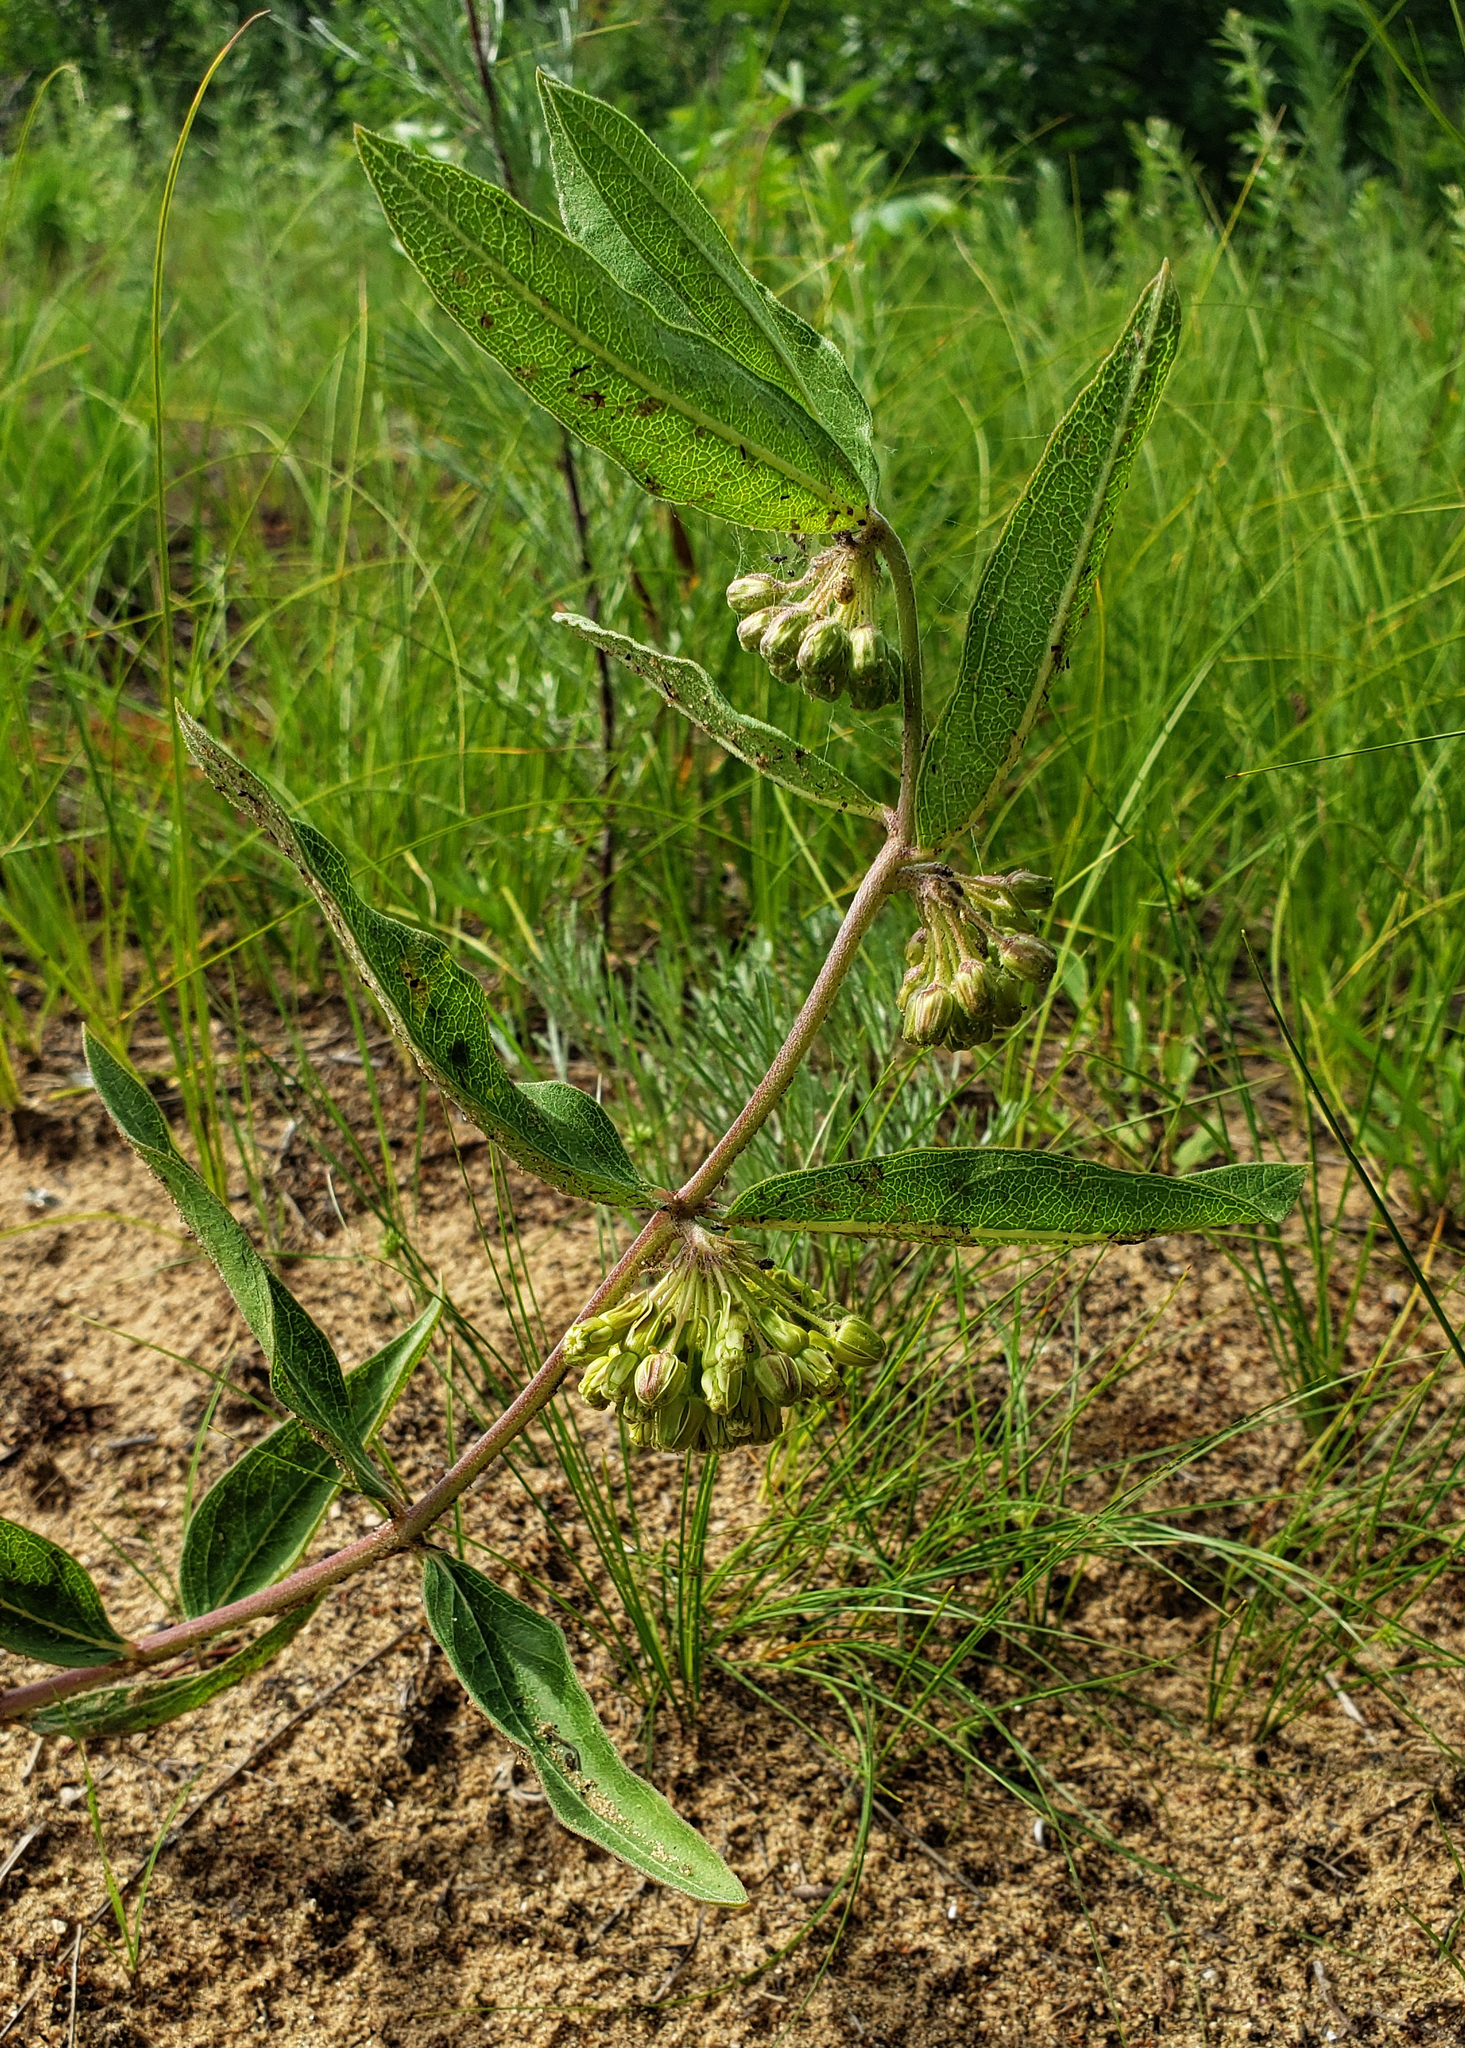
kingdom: Plantae
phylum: Tracheophyta
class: Magnoliopsida
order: Gentianales
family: Apocynaceae
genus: Asclepias
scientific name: Asclepias viridiflora
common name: Green comet milkweed
